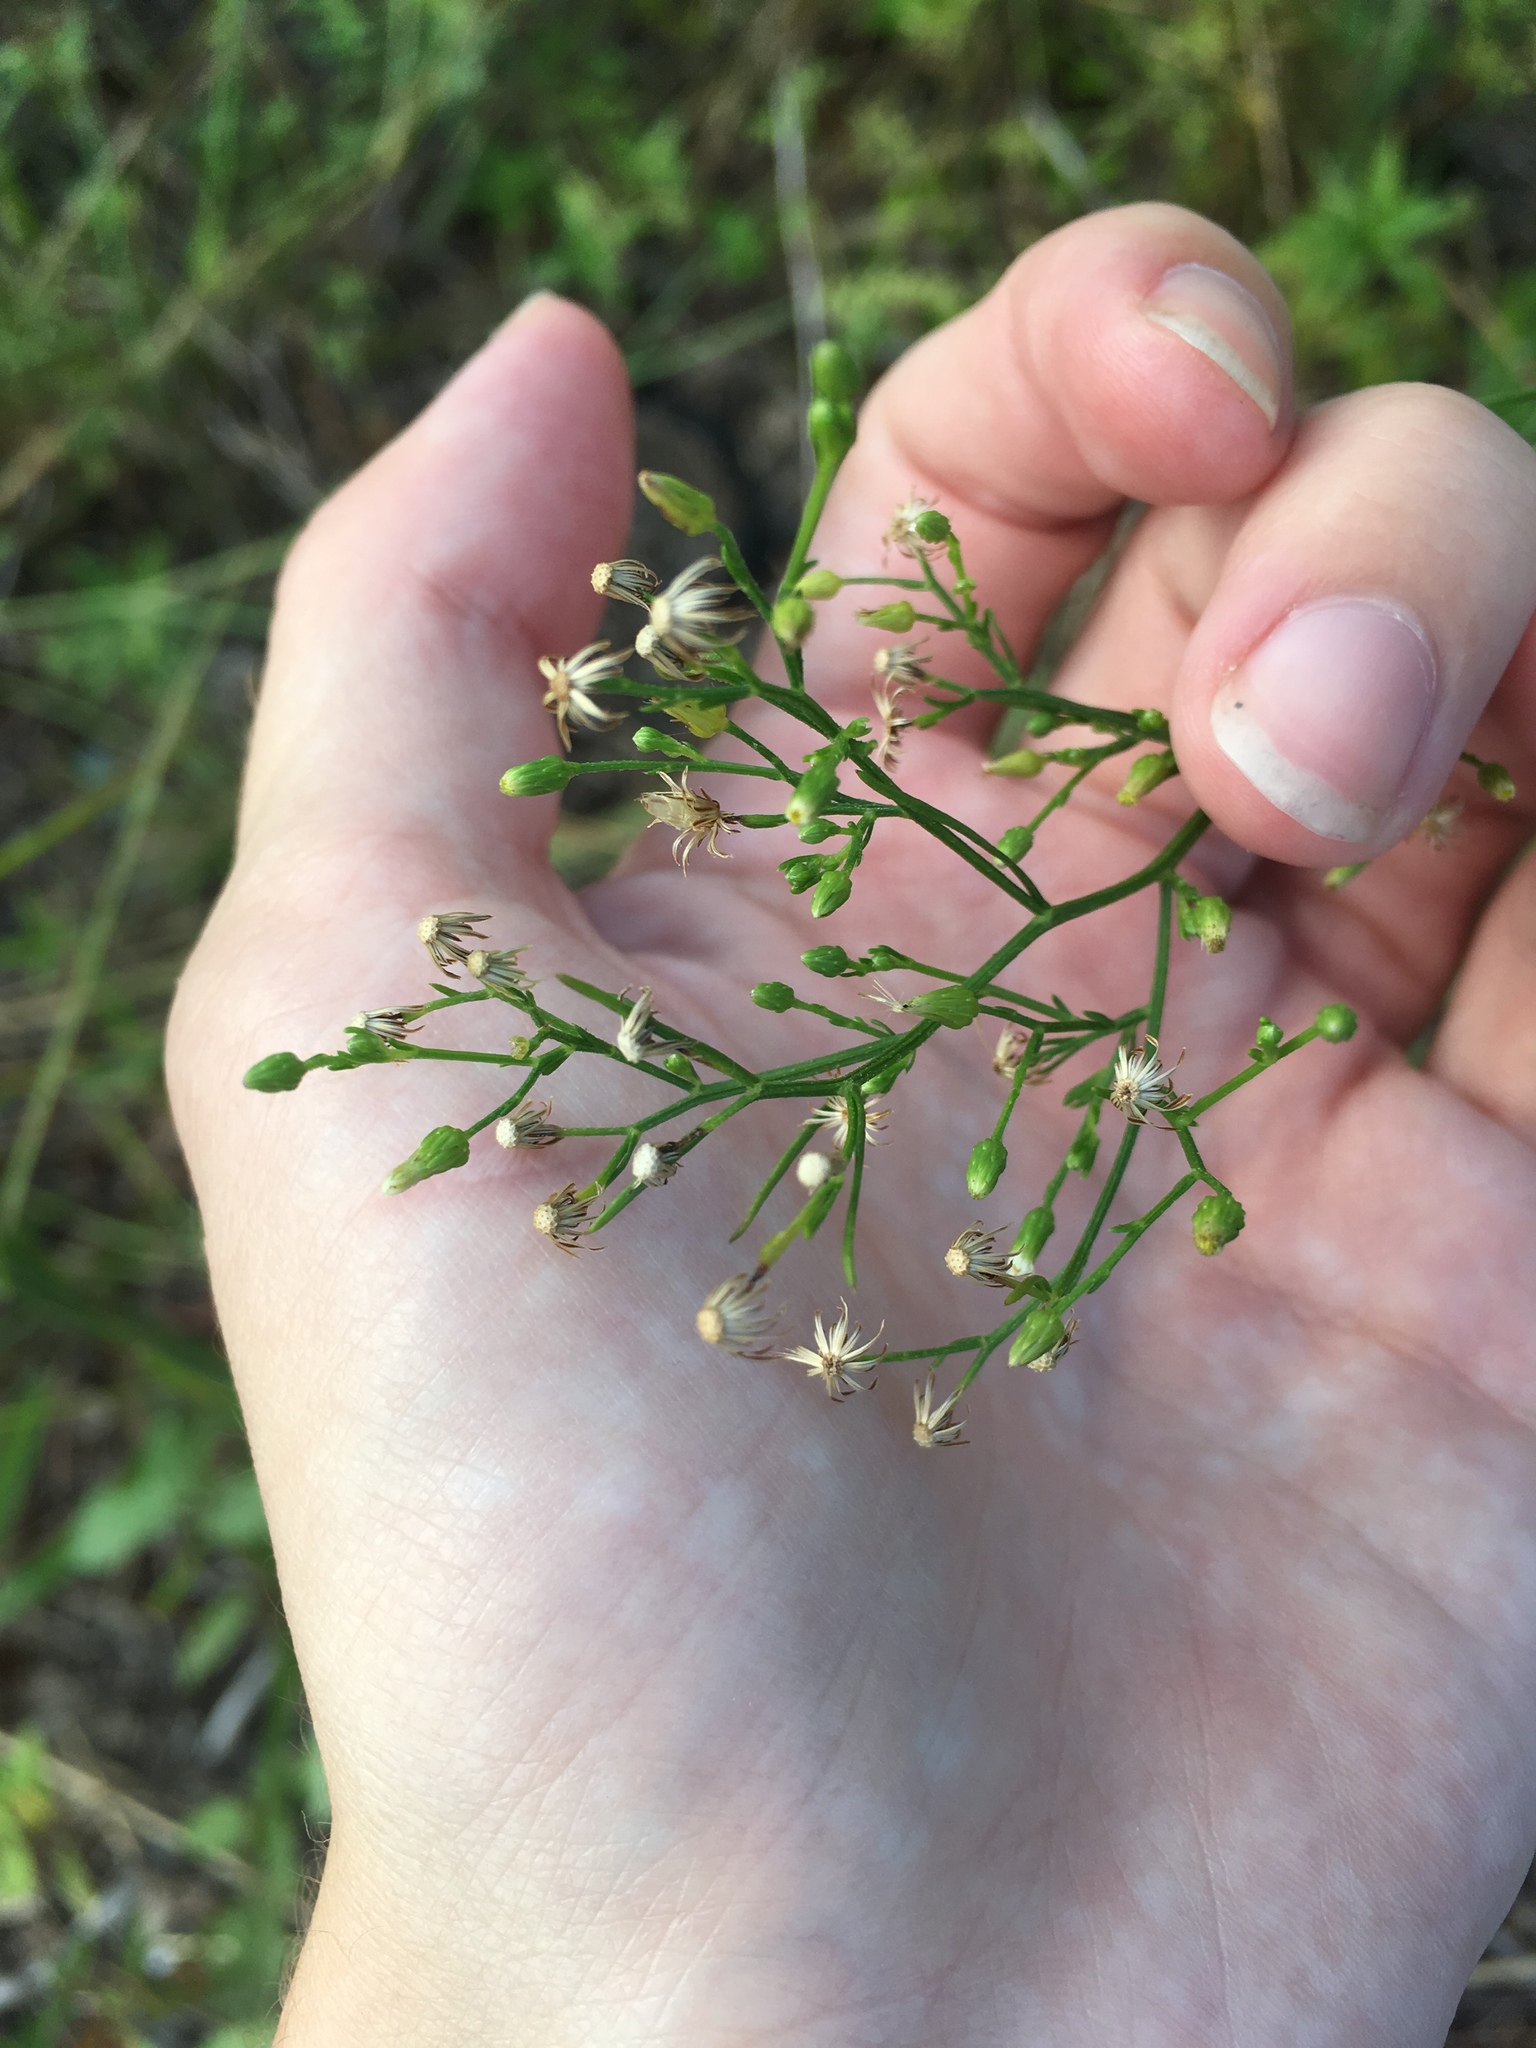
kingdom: Plantae
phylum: Tracheophyta
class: Magnoliopsida
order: Asterales
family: Asteraceae
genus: Erigeron
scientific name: Erigeron canadensis
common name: Canadian fleabane
